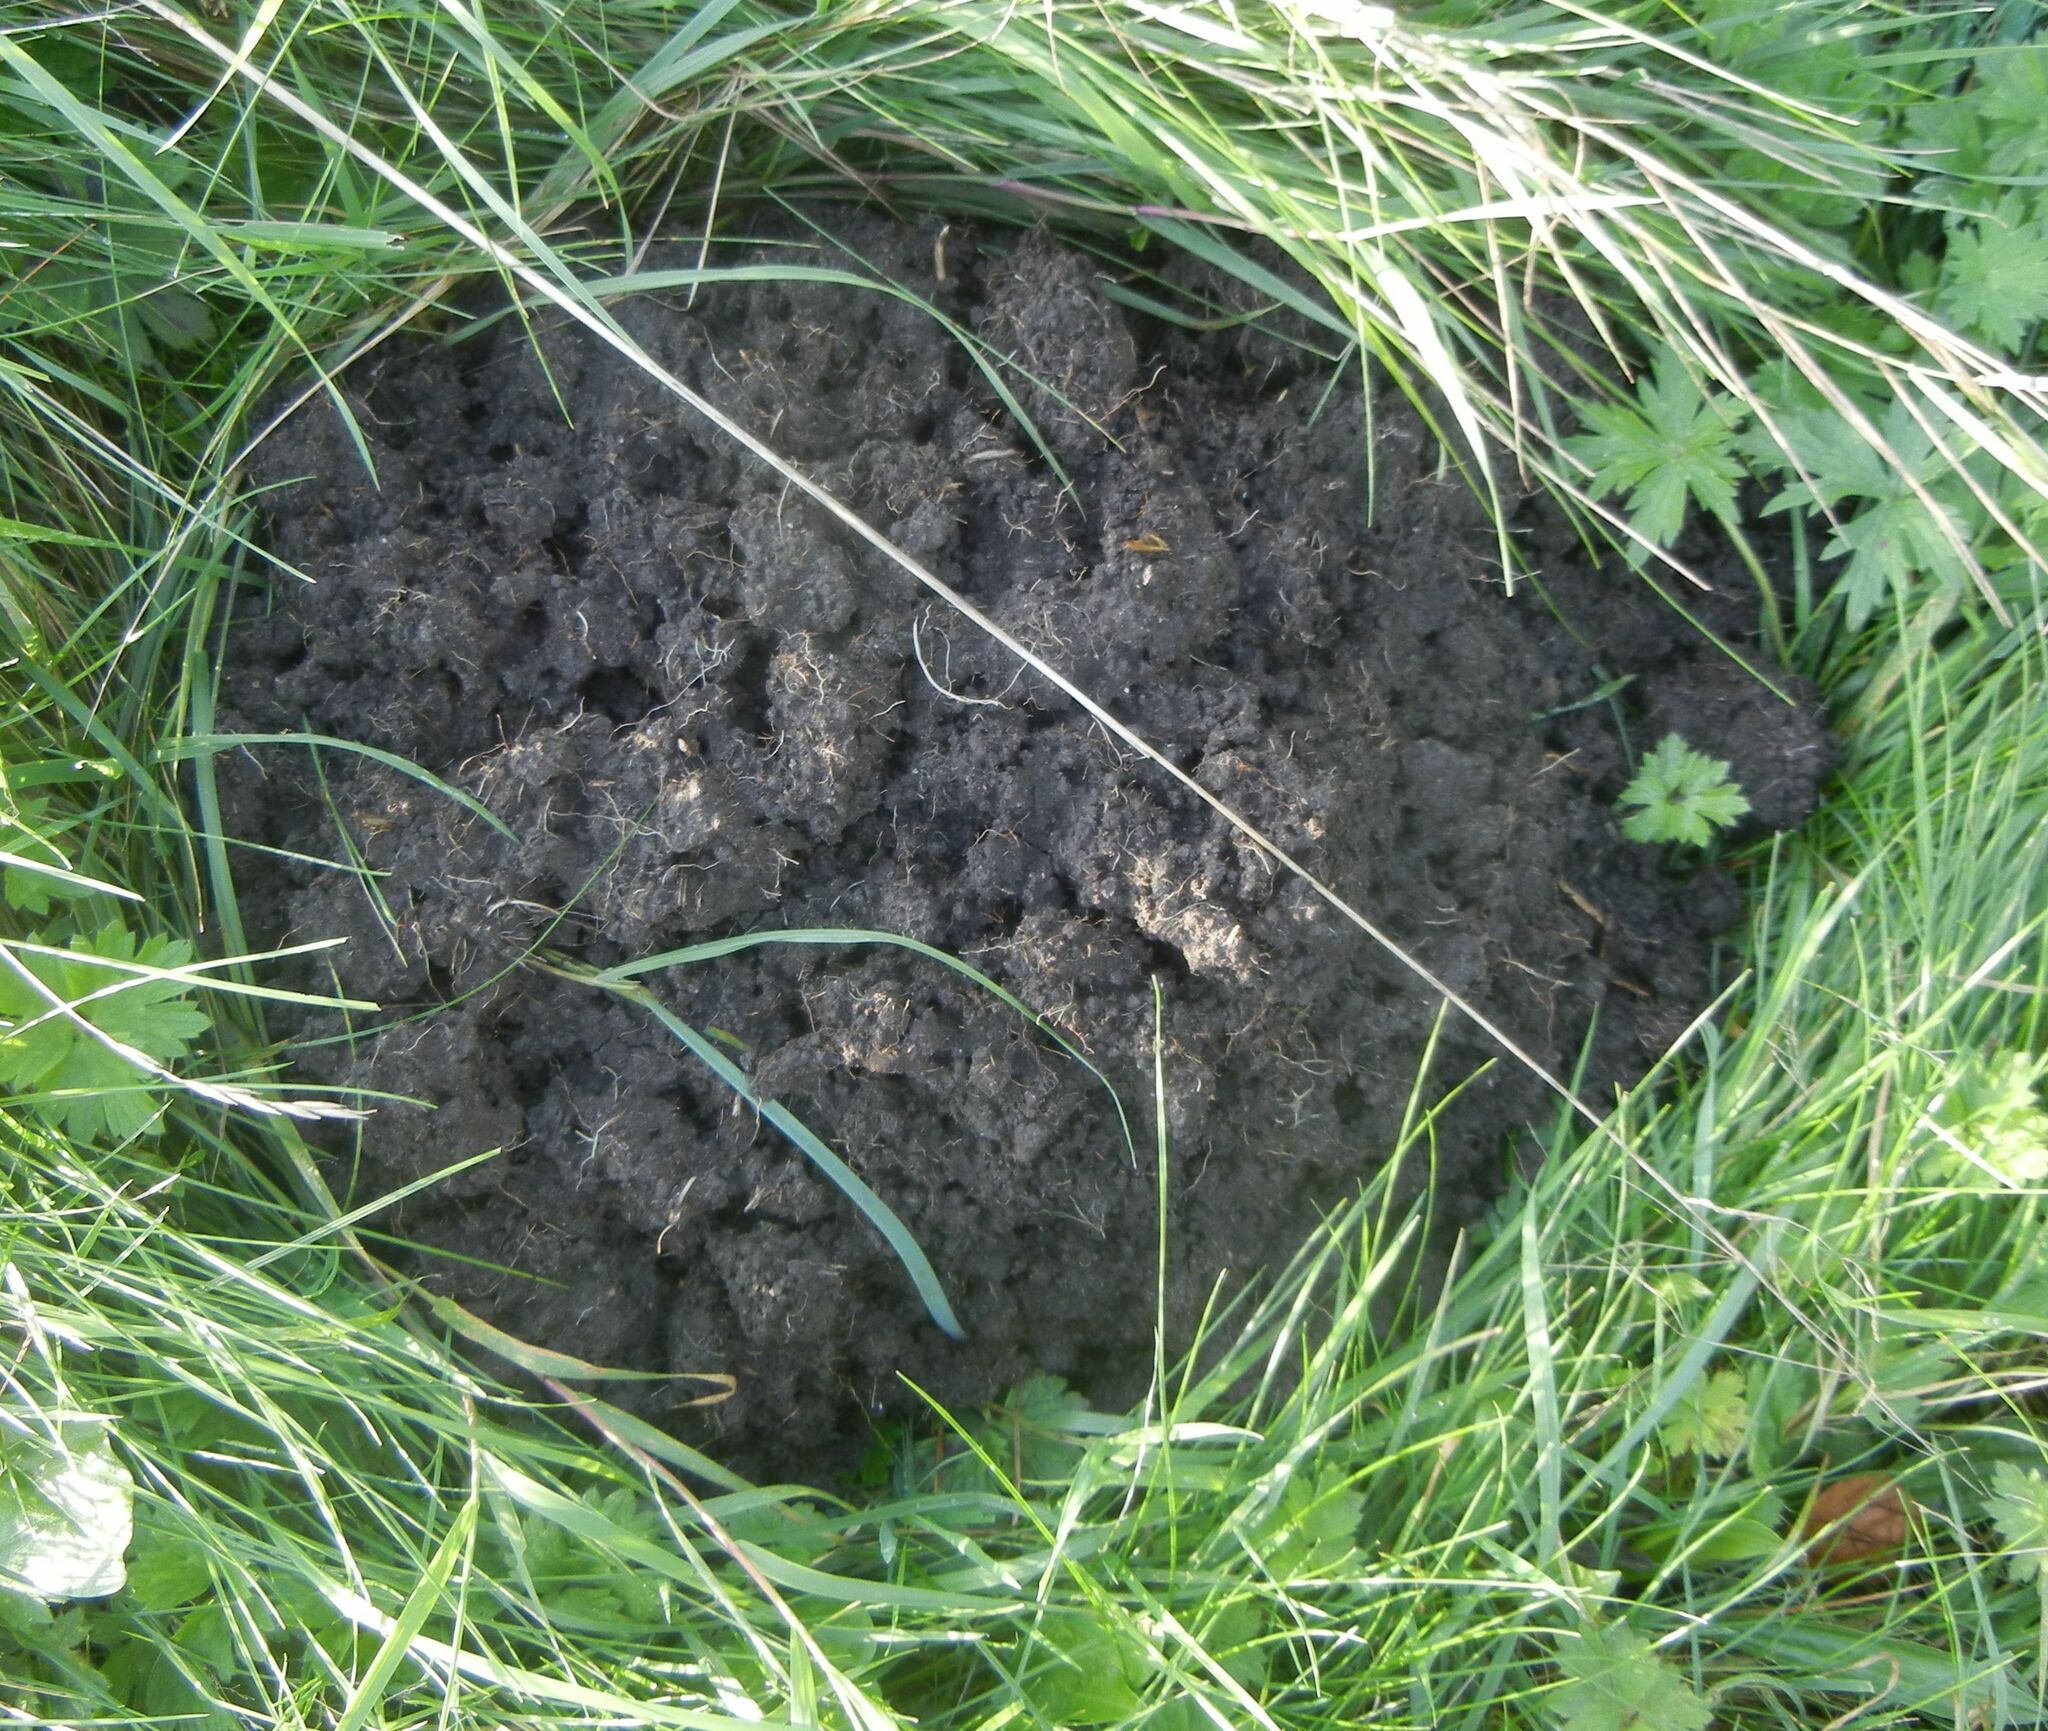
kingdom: Animalia
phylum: Chordata
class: Mammalia
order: Soricomorpha
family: Talpidae
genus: Talpa
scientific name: Talpa europaea
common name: European mole
